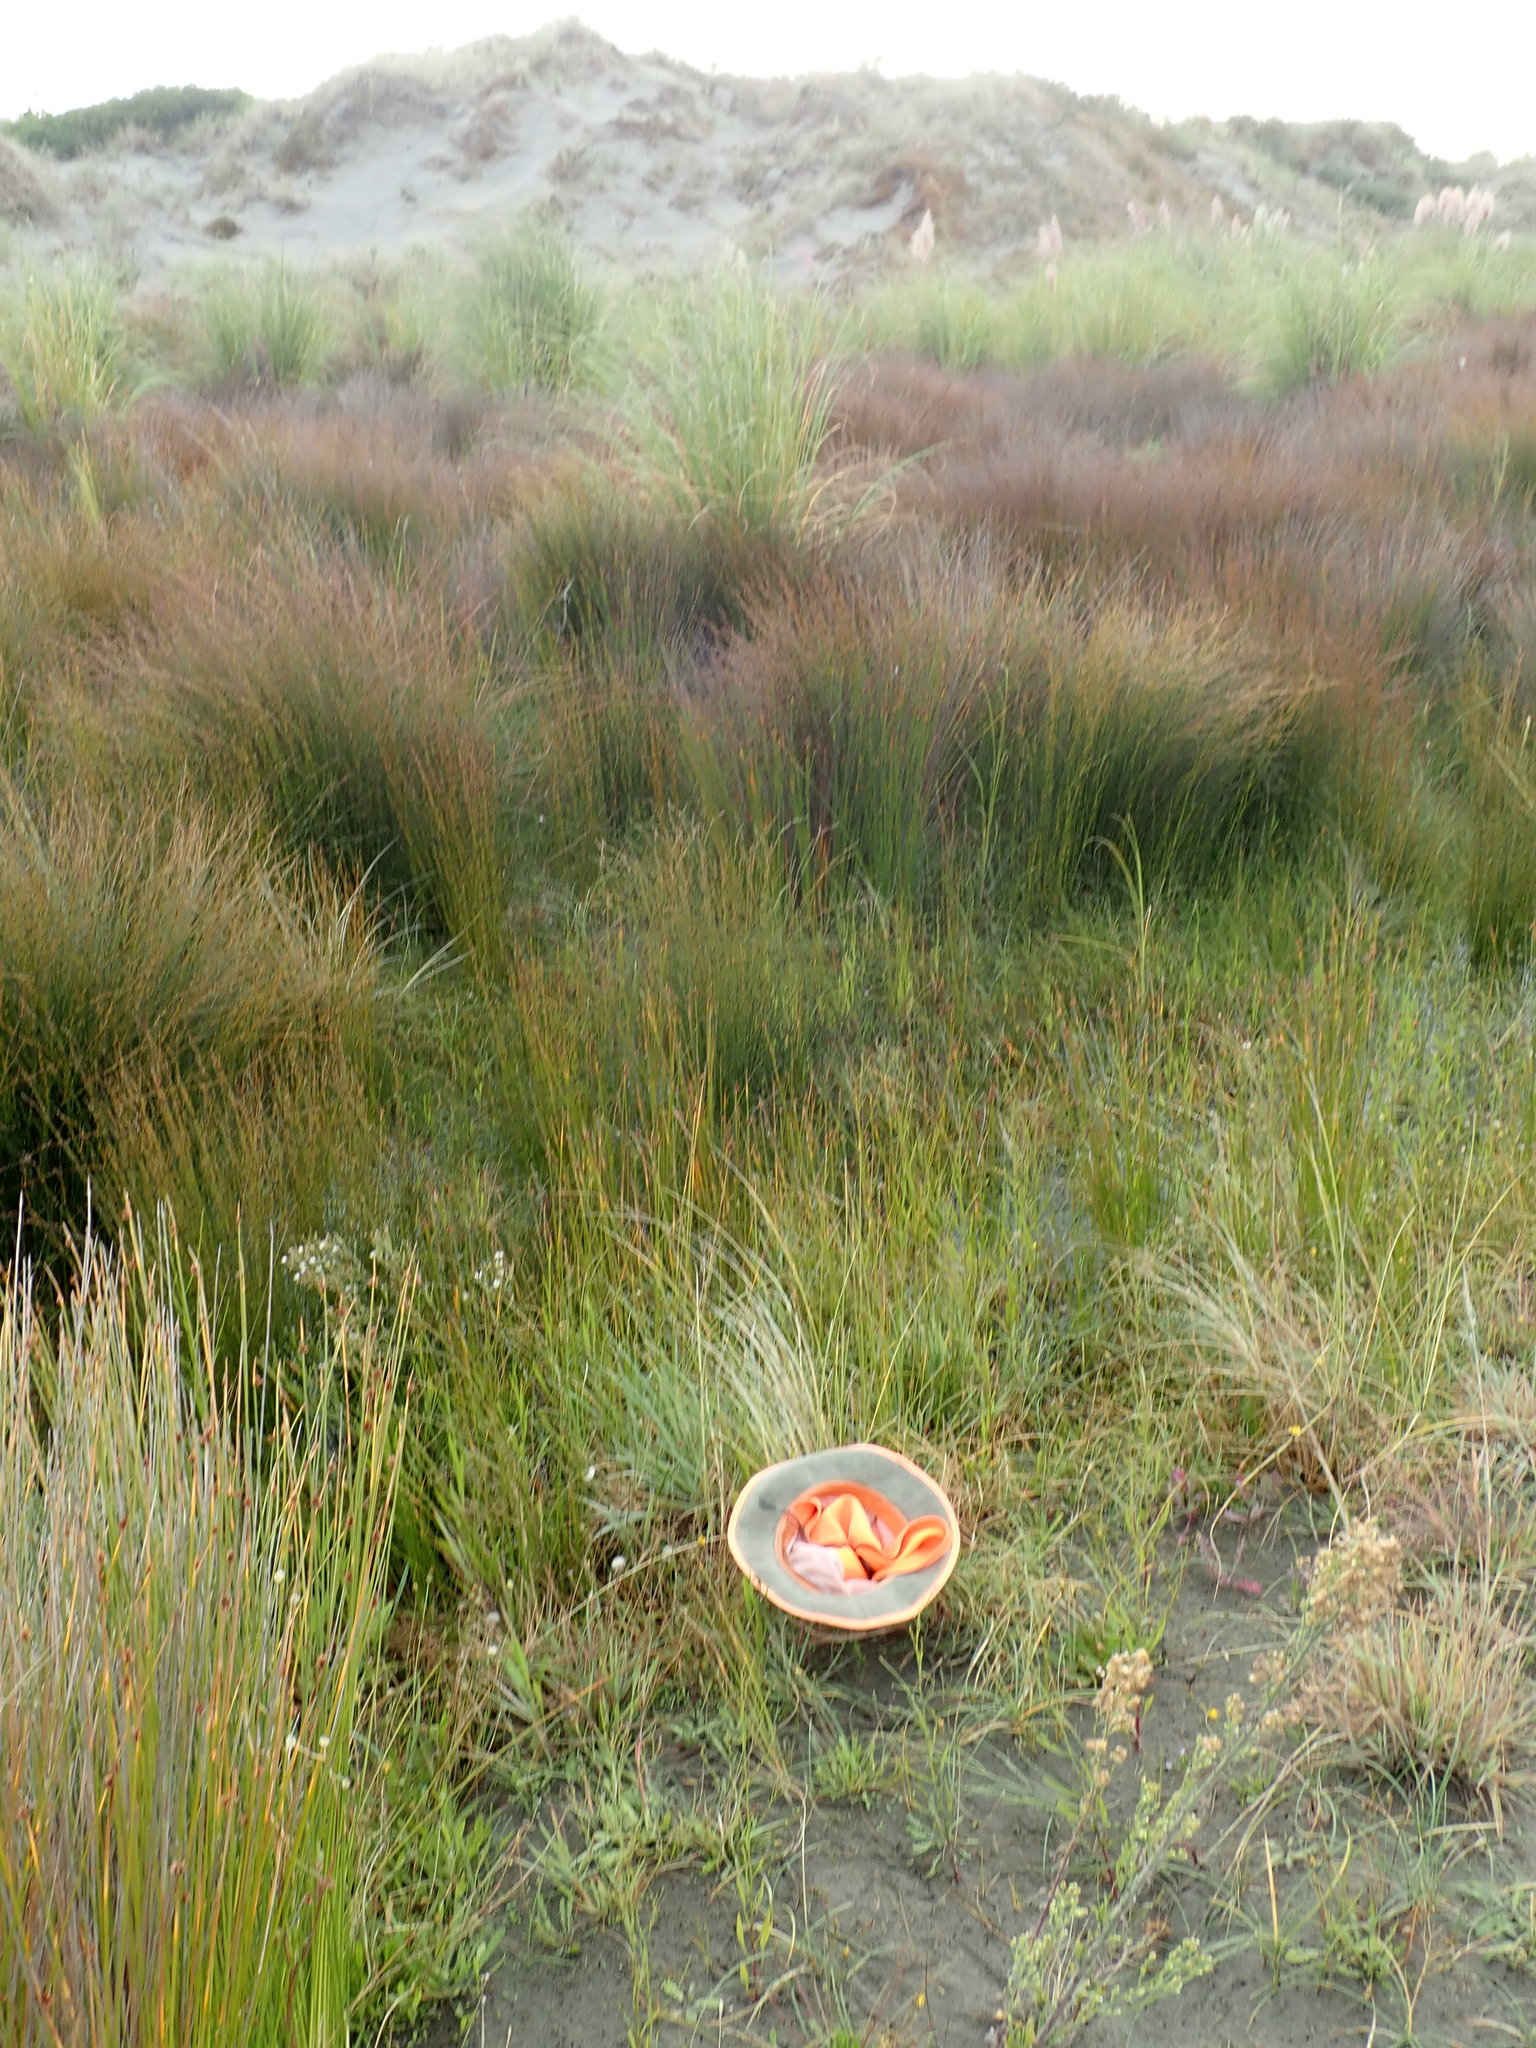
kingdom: Plantae
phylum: Tracheophyta
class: Magnoliopsida
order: Asterales
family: Campanulaceae
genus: Lobelia
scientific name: Lobelia anceps
